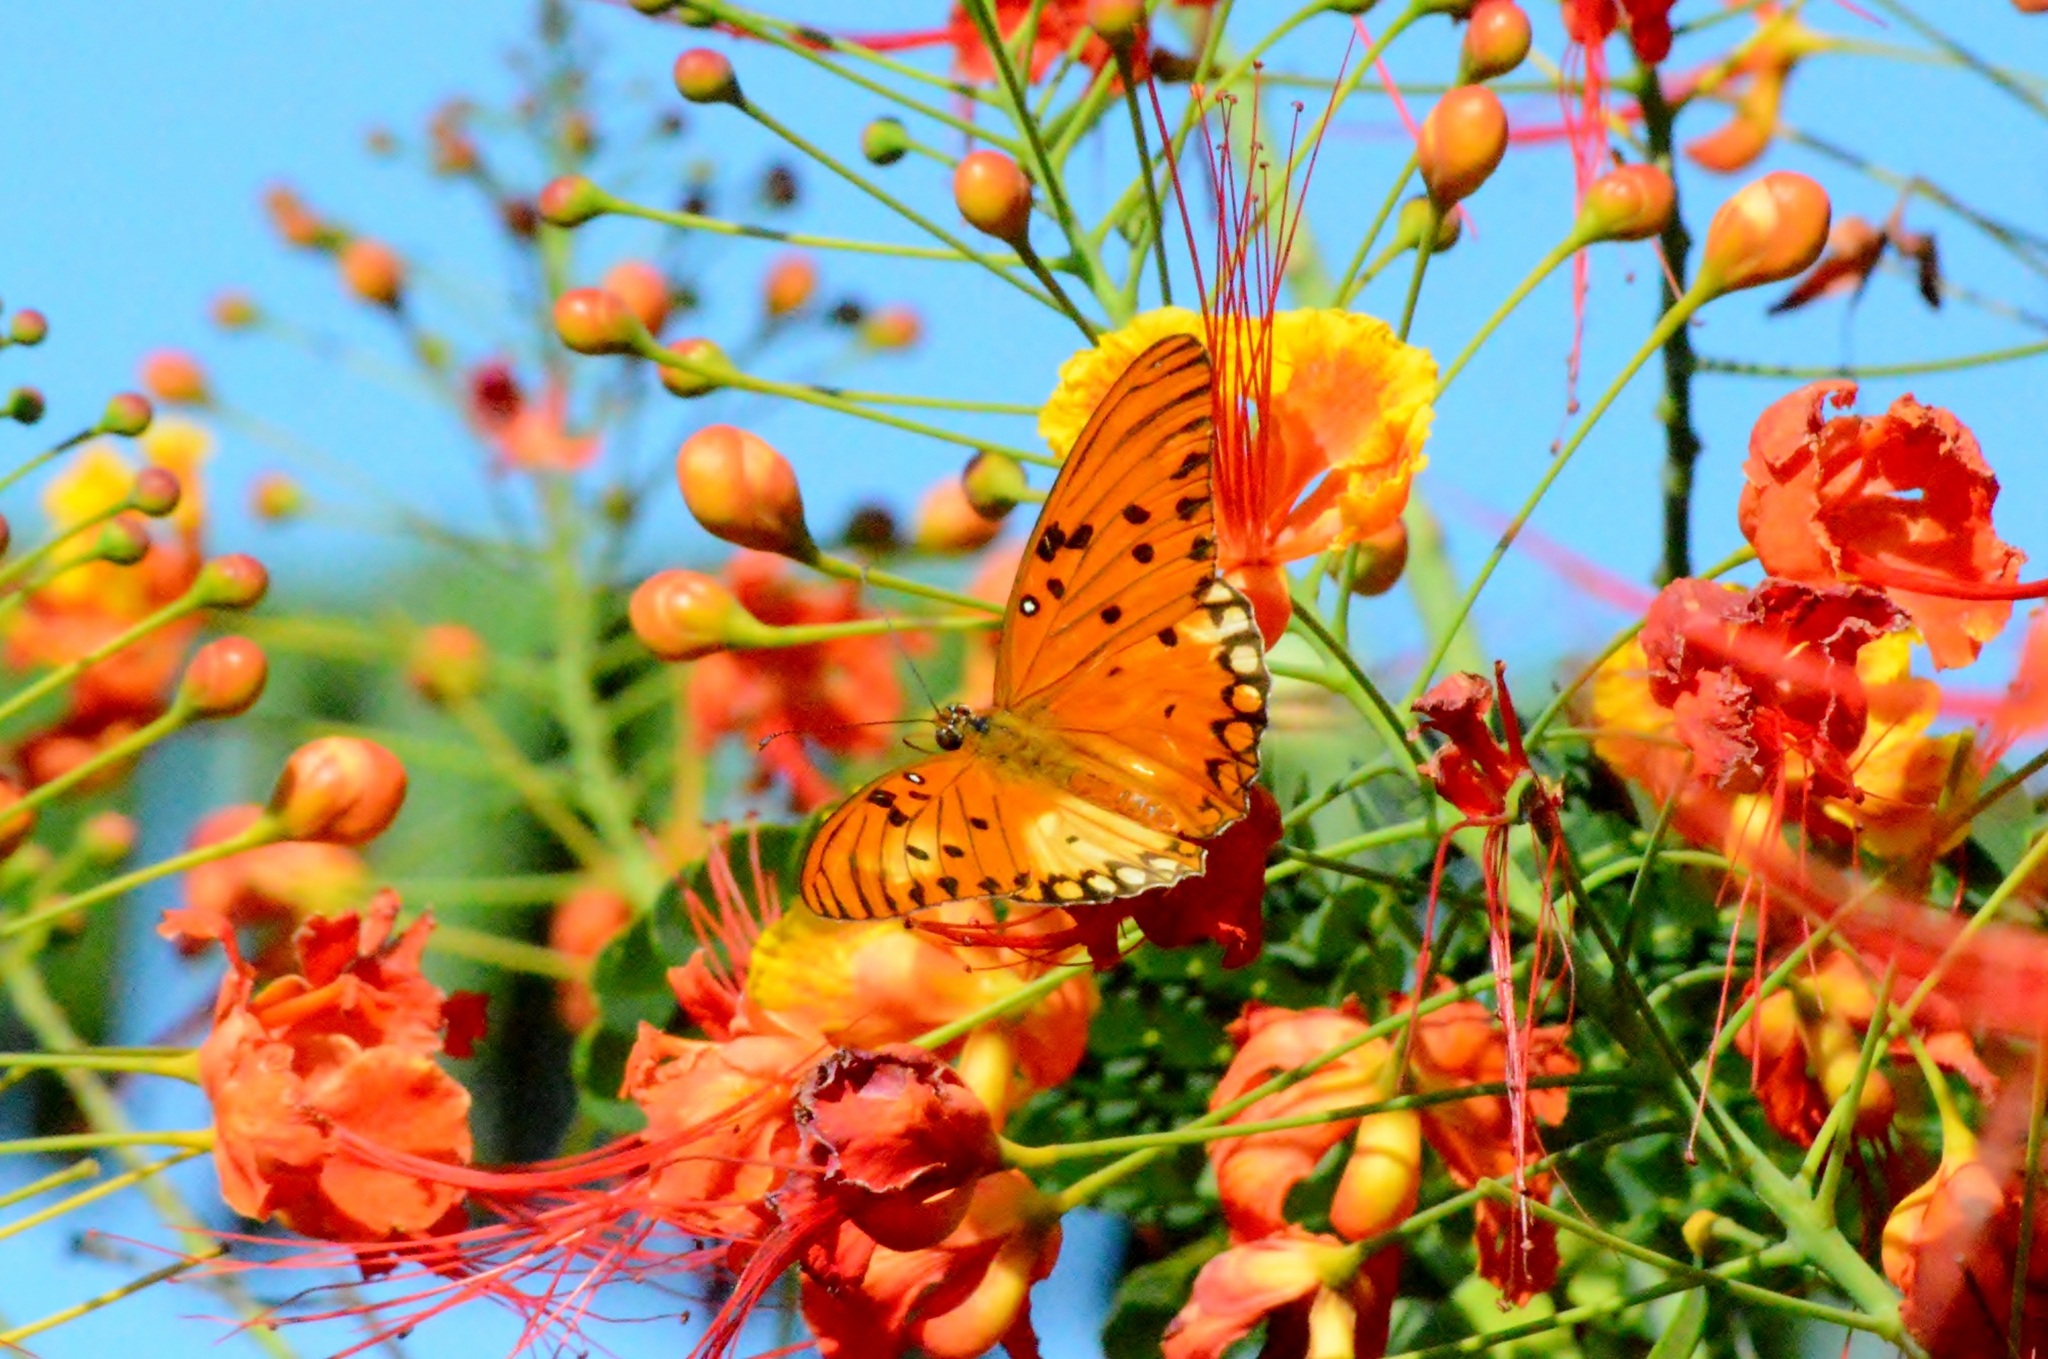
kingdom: Animalia
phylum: Arthropoda
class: Insecta
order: Lepidoptera
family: Nymphalidae
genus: Dione
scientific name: Dione vanillae
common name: Gulf fritillary
